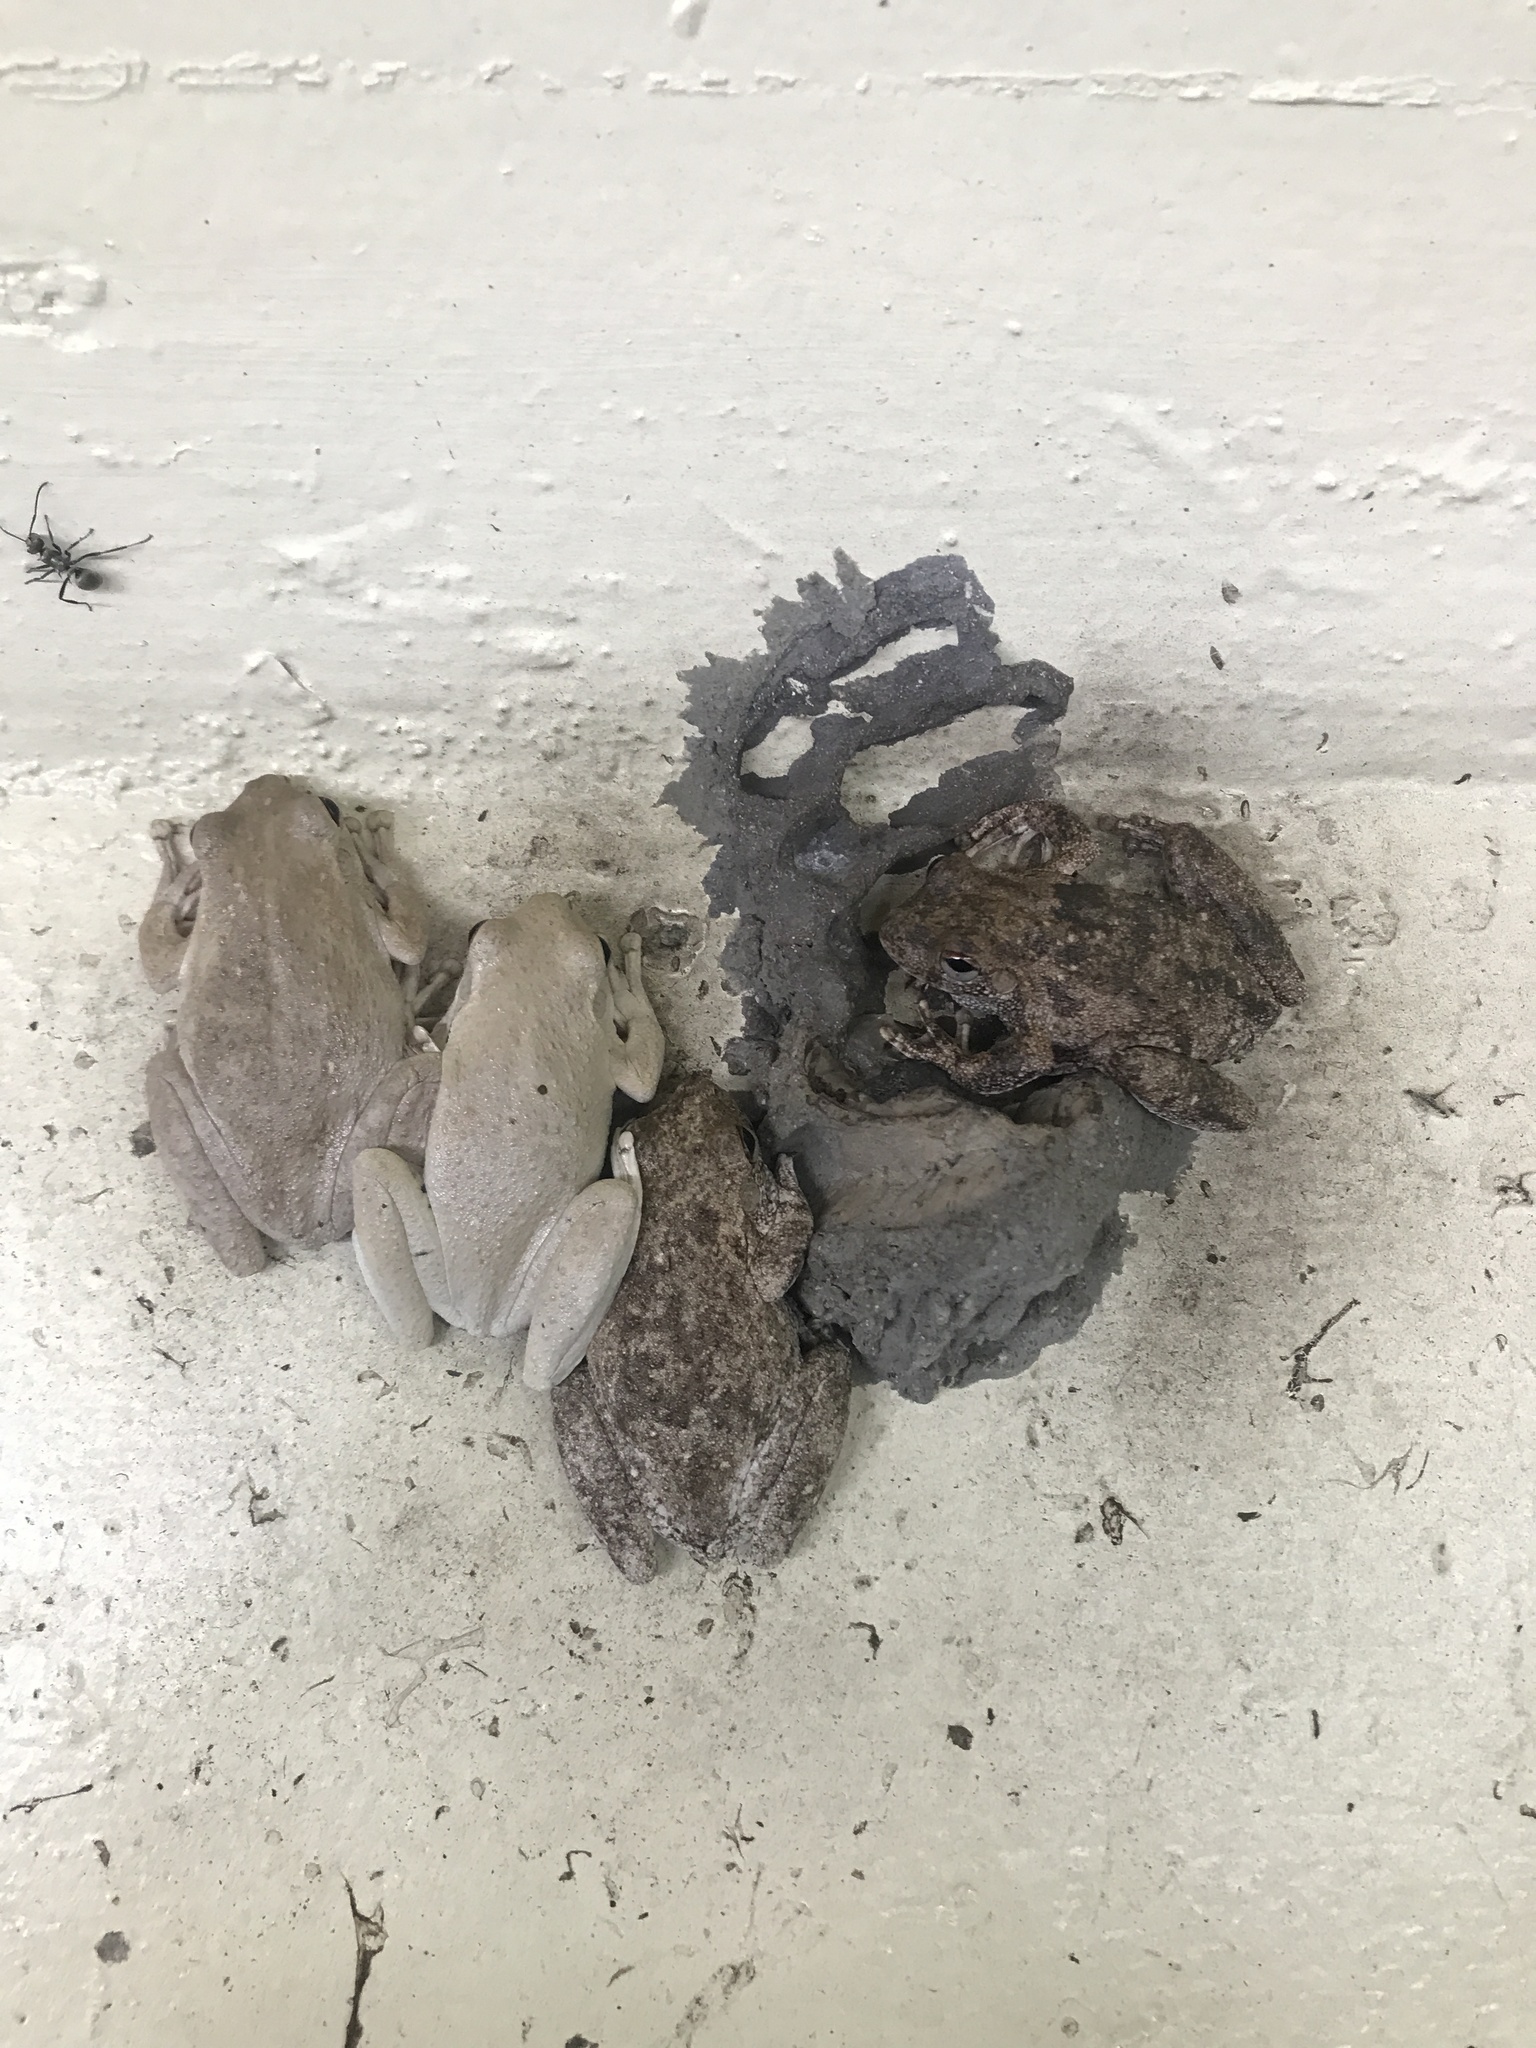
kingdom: Animalia
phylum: Chordata
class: Amphibia
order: Anura
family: Pelodryadidae
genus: Litoria
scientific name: Litoria rothii
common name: Roth’s tree frog
